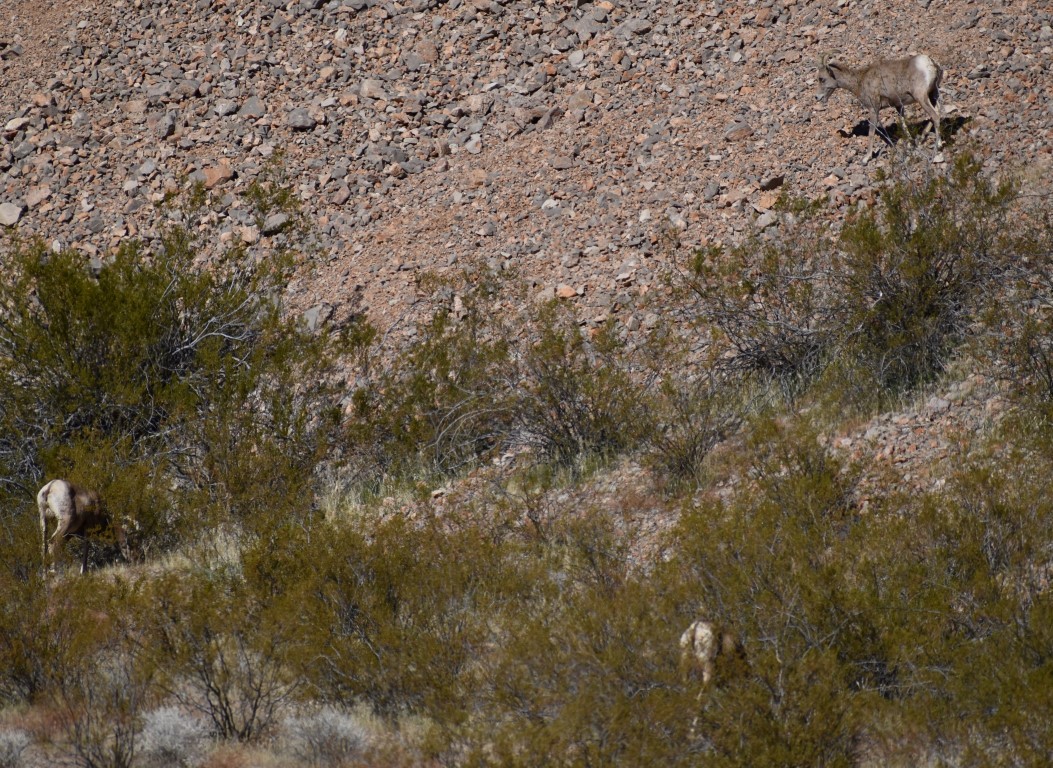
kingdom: Animalia
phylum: Chordata
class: Mammalia
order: Artiodactyla
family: Bovidae
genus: Ovis
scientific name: Ovis canadensis
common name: Bighorn sheep
